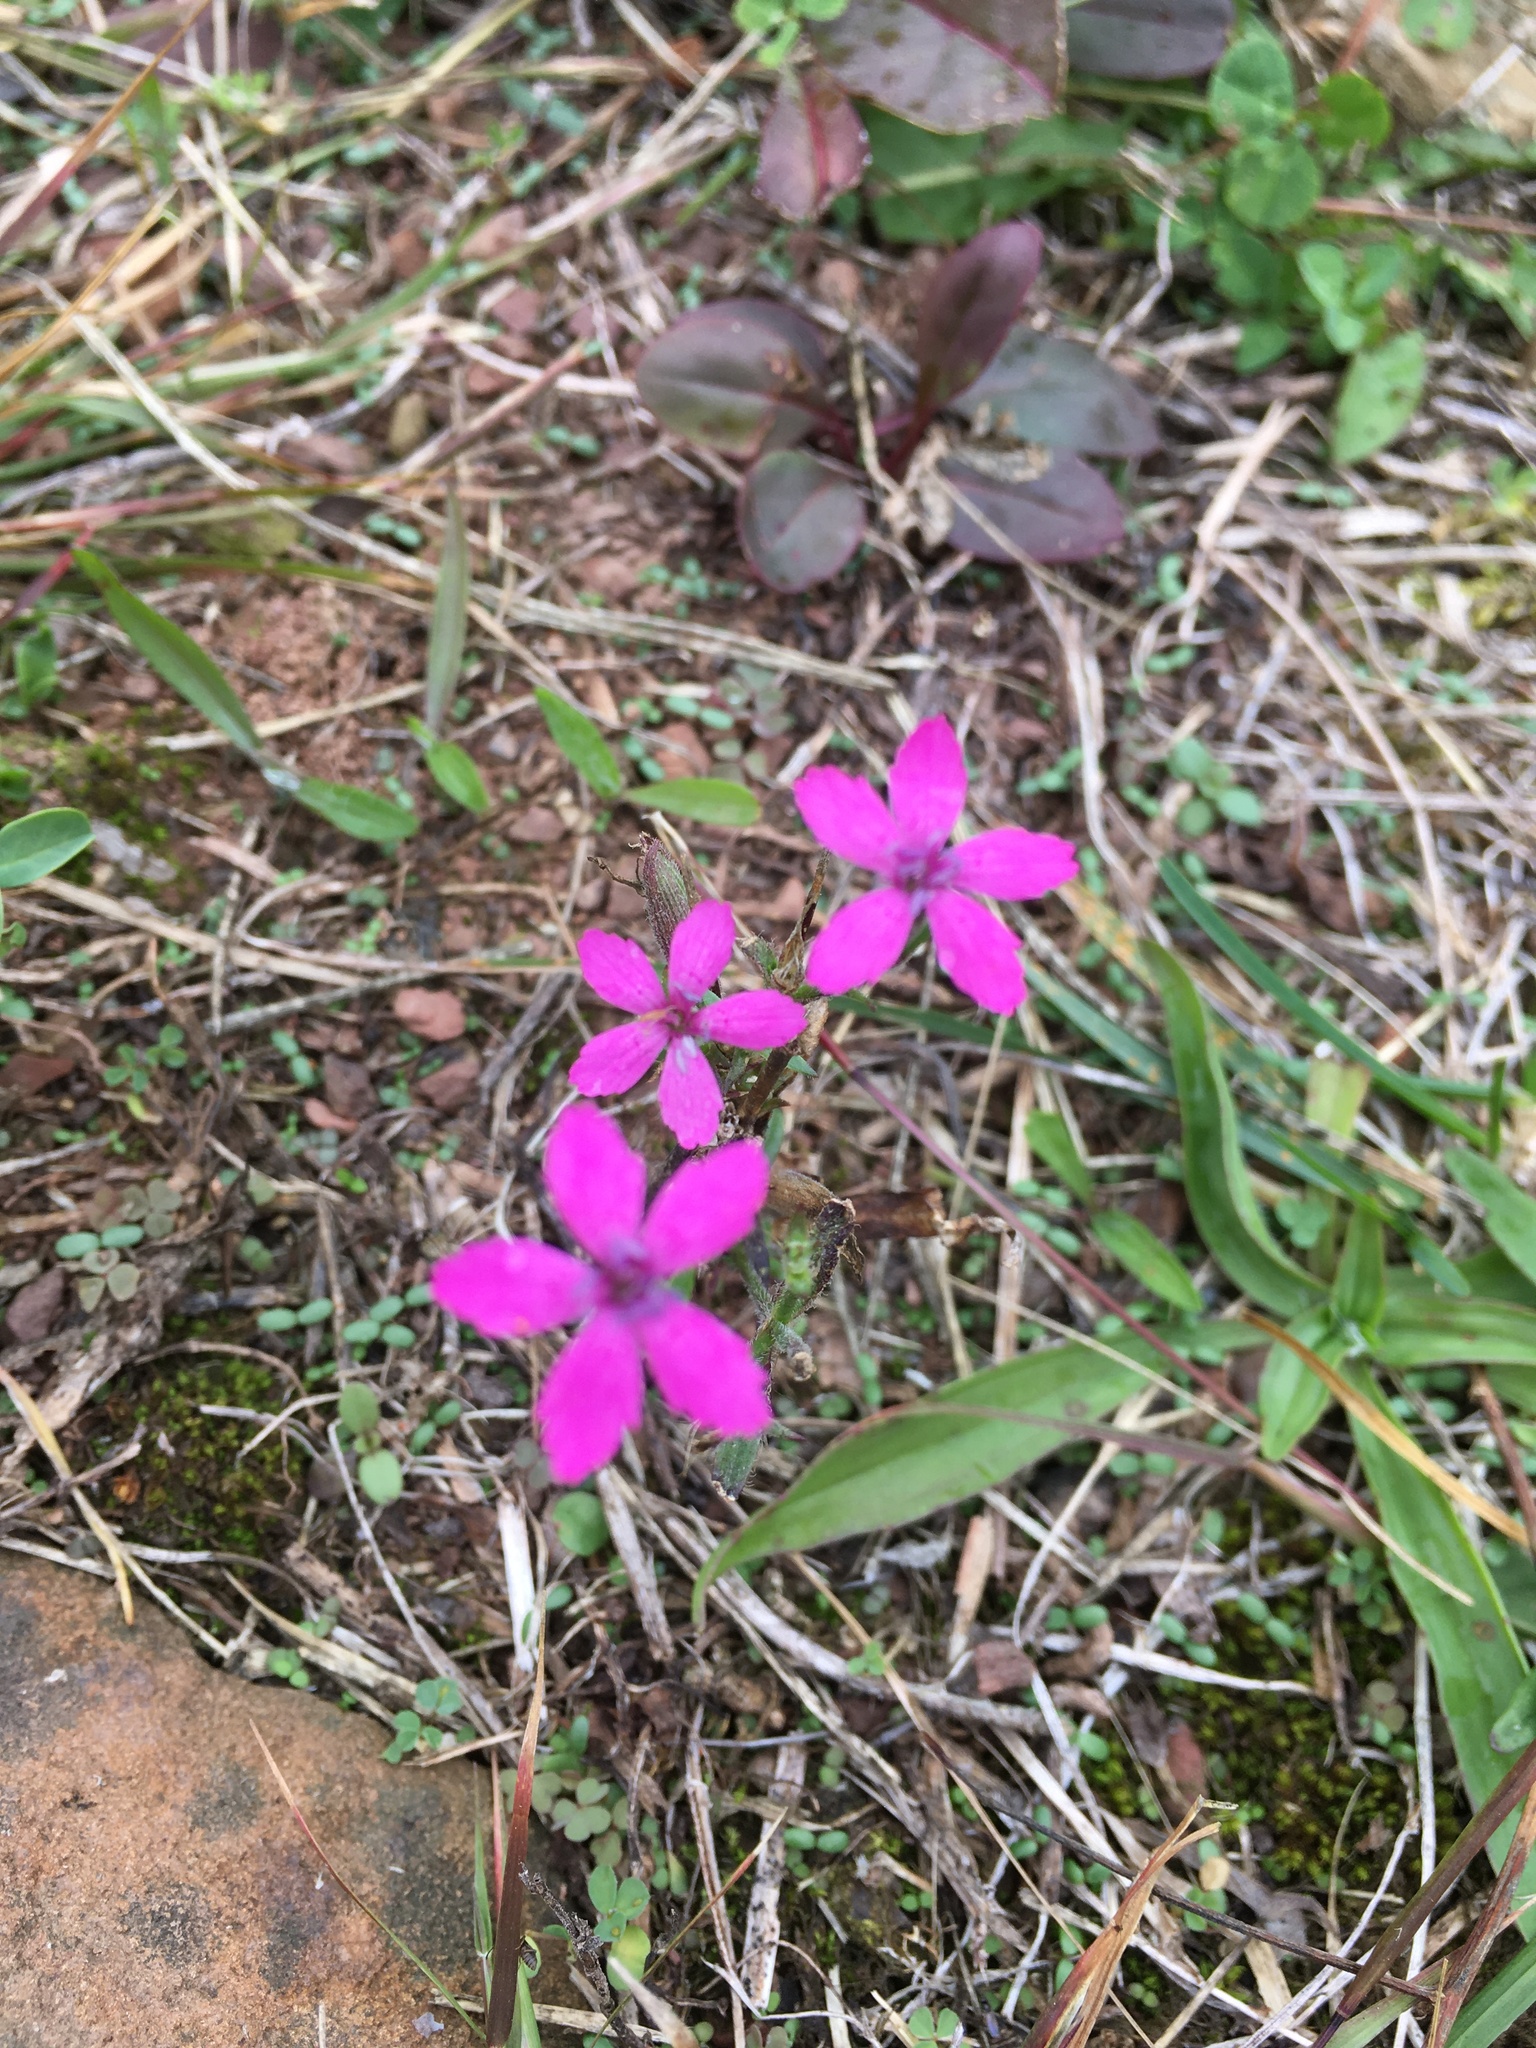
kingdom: Plantae
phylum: Tracheophyta
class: Magnoliopsida
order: Caryophyllales
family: Caryophyllaceae
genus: Dianthus
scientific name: Dianthus armeria
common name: Deptford pink
